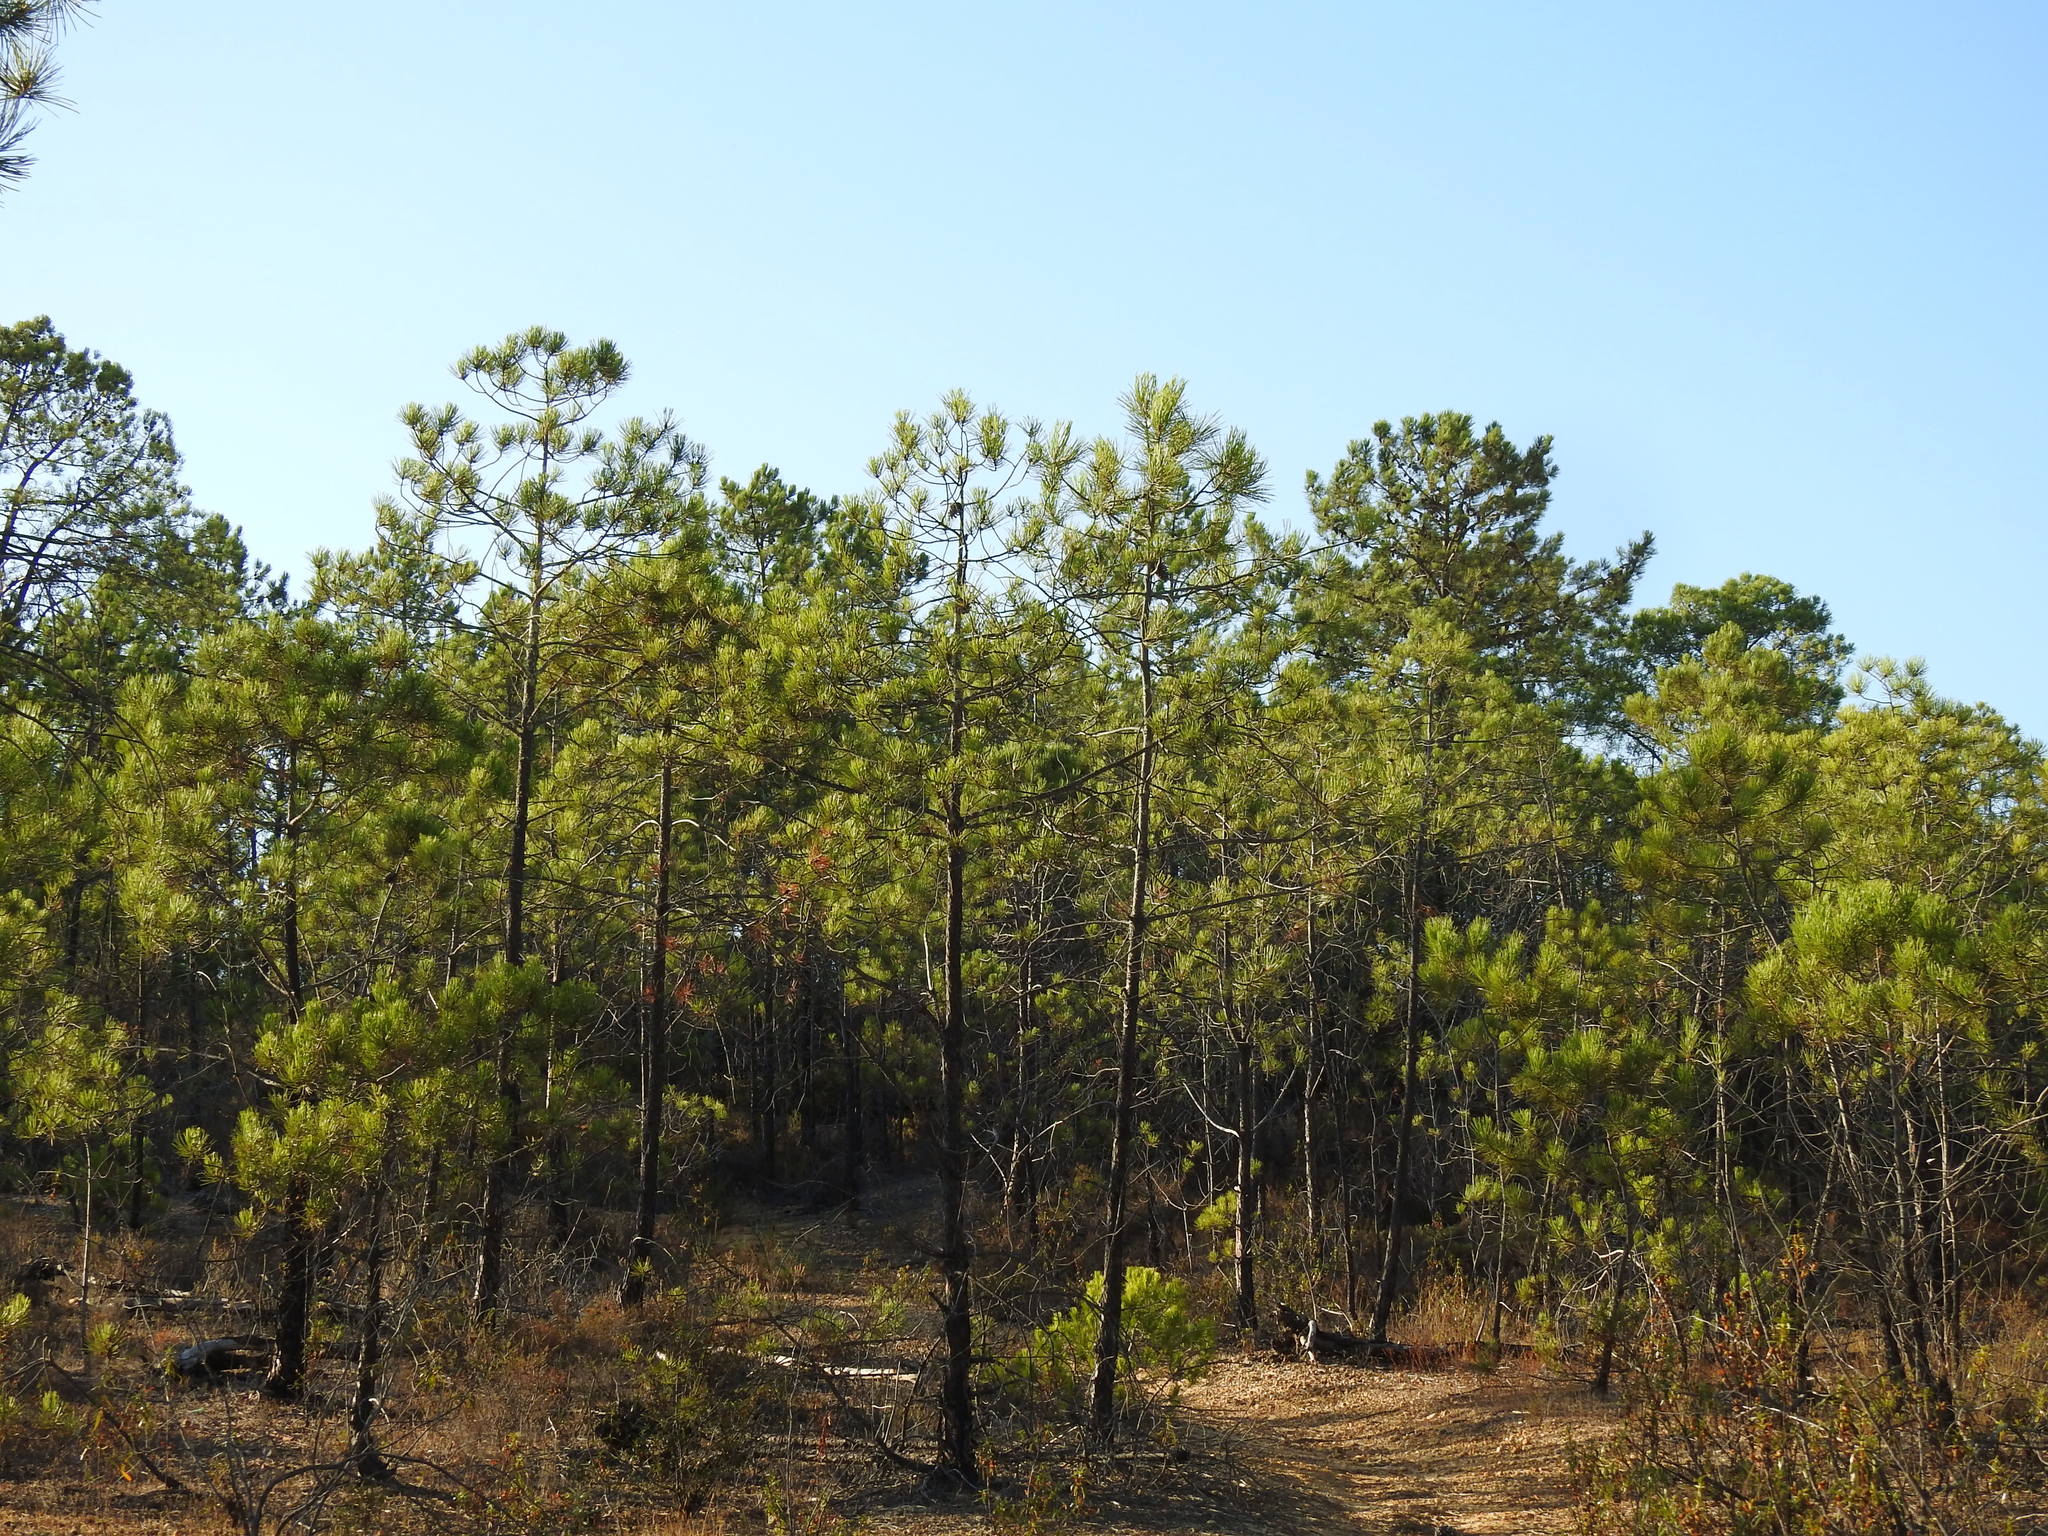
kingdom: Plantae
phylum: Tracheophyta
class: Pinopsida
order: Pinales
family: Pinaceae
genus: Pinus
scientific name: Pinus pinaster
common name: Maritime pine
